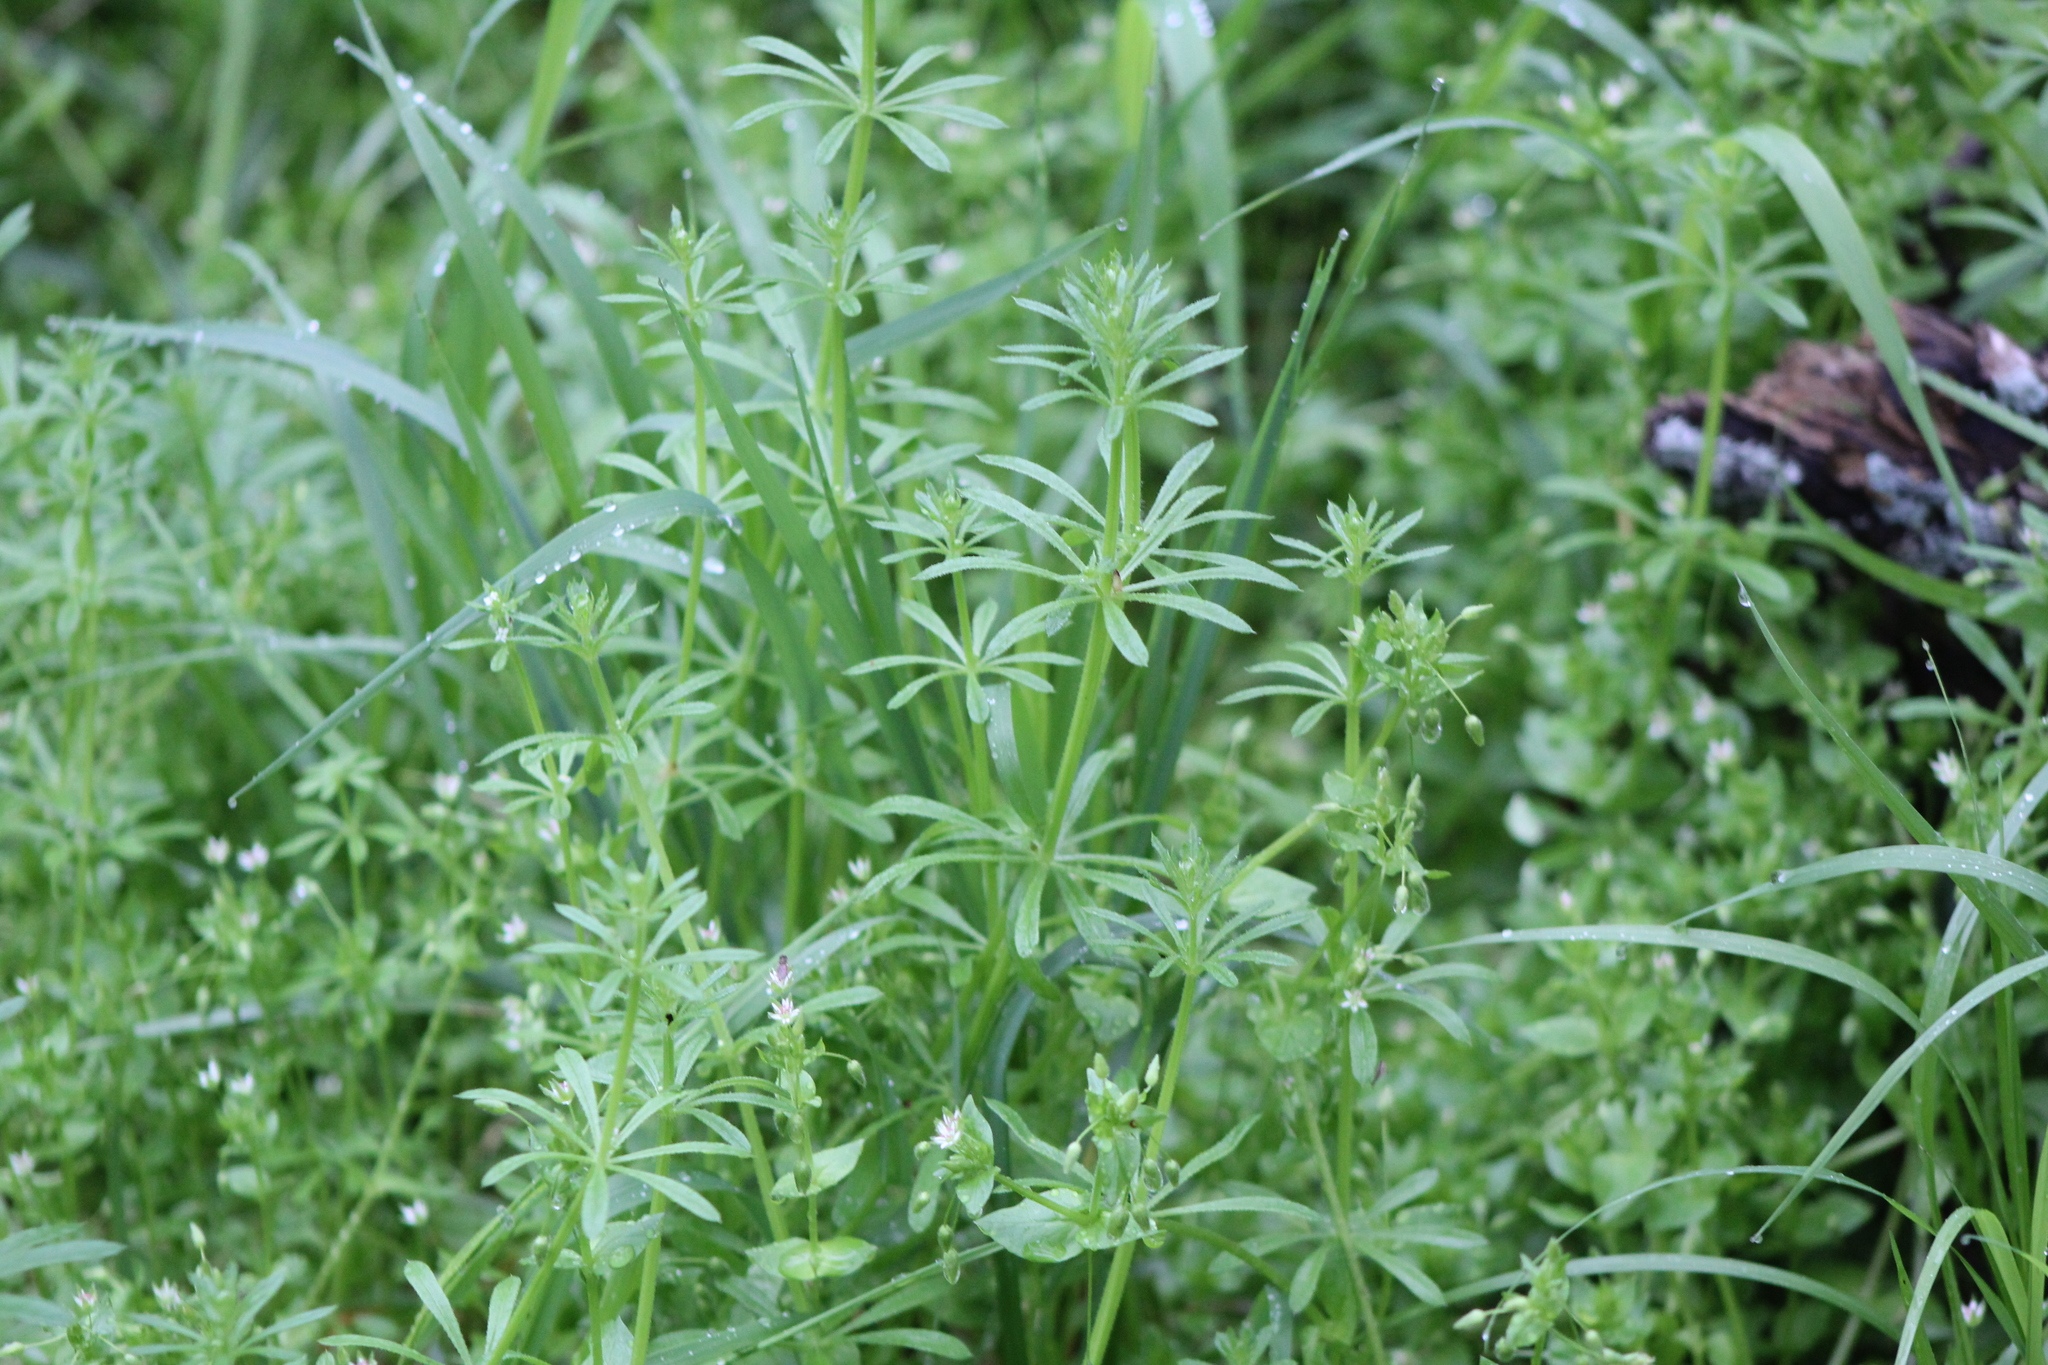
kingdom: Plantae
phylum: Tracheophyta
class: Magnoliopsida
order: Gentianales
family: Rubiaceae
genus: Galium
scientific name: Galium aparine
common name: Cleavers
